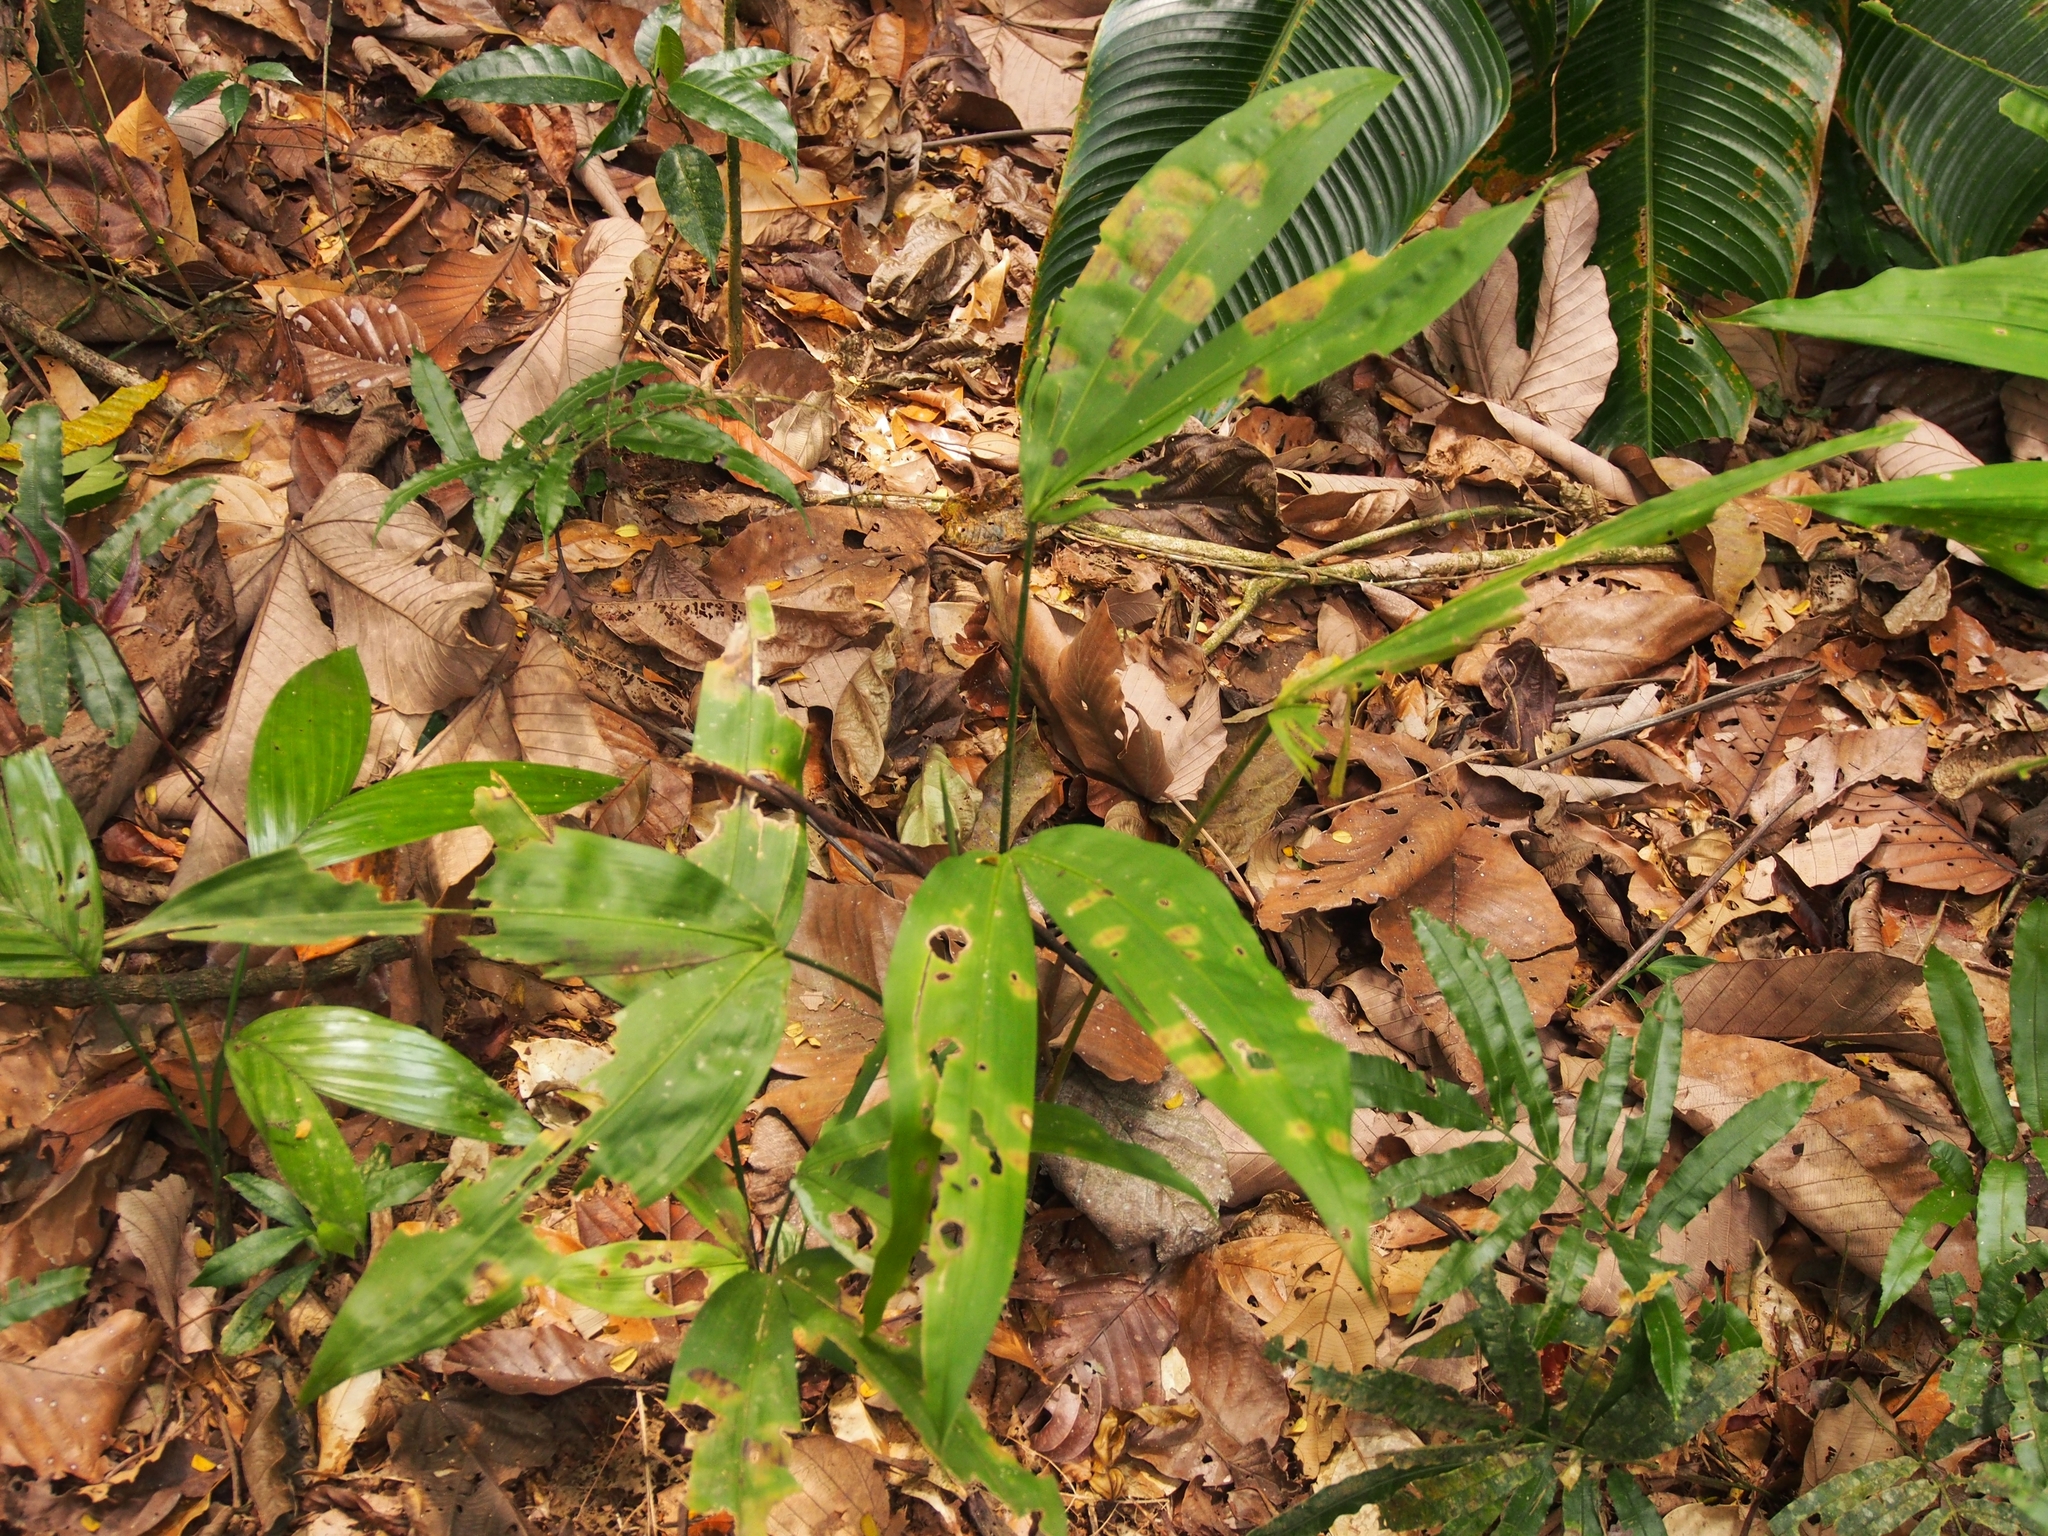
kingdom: Plantae
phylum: Tracheophyta
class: Liliopsida
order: Pandanales
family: Cyclanthaceae
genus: Cyclanthus
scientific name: Cyclanthus bipartitus
